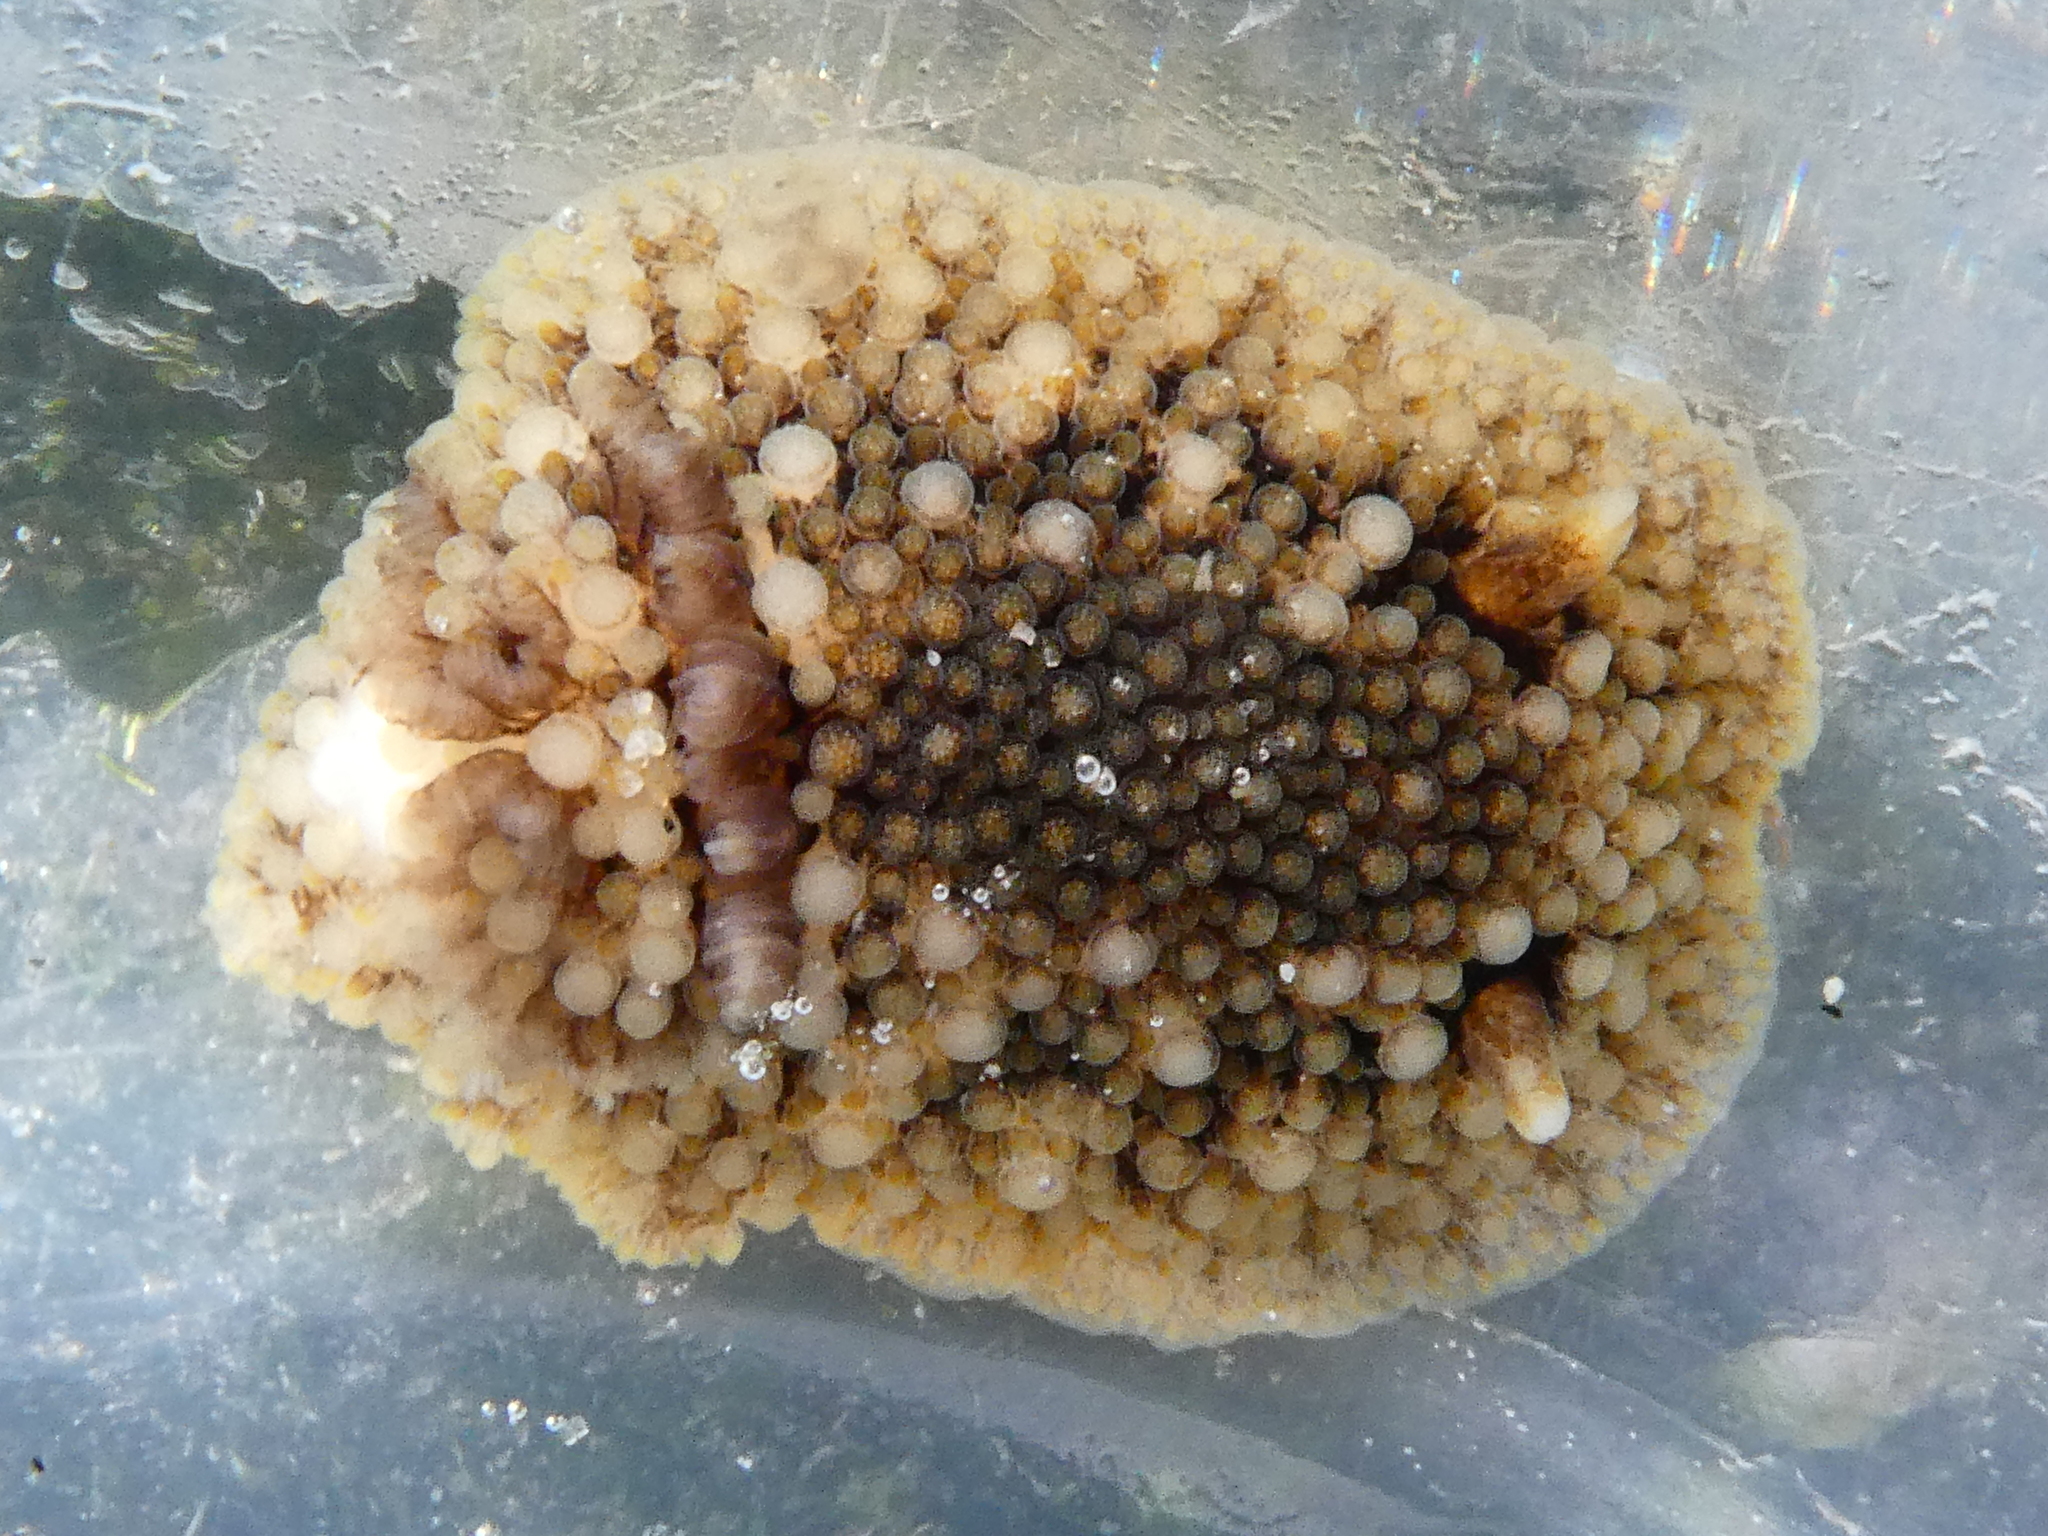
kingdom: Animalia
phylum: Mollusca
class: Gastropoda
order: Nudibranchia
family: Onchidorididae
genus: Onchidoris
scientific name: Onchidoris bilamellata
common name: Barnacle-eating onchidoris
